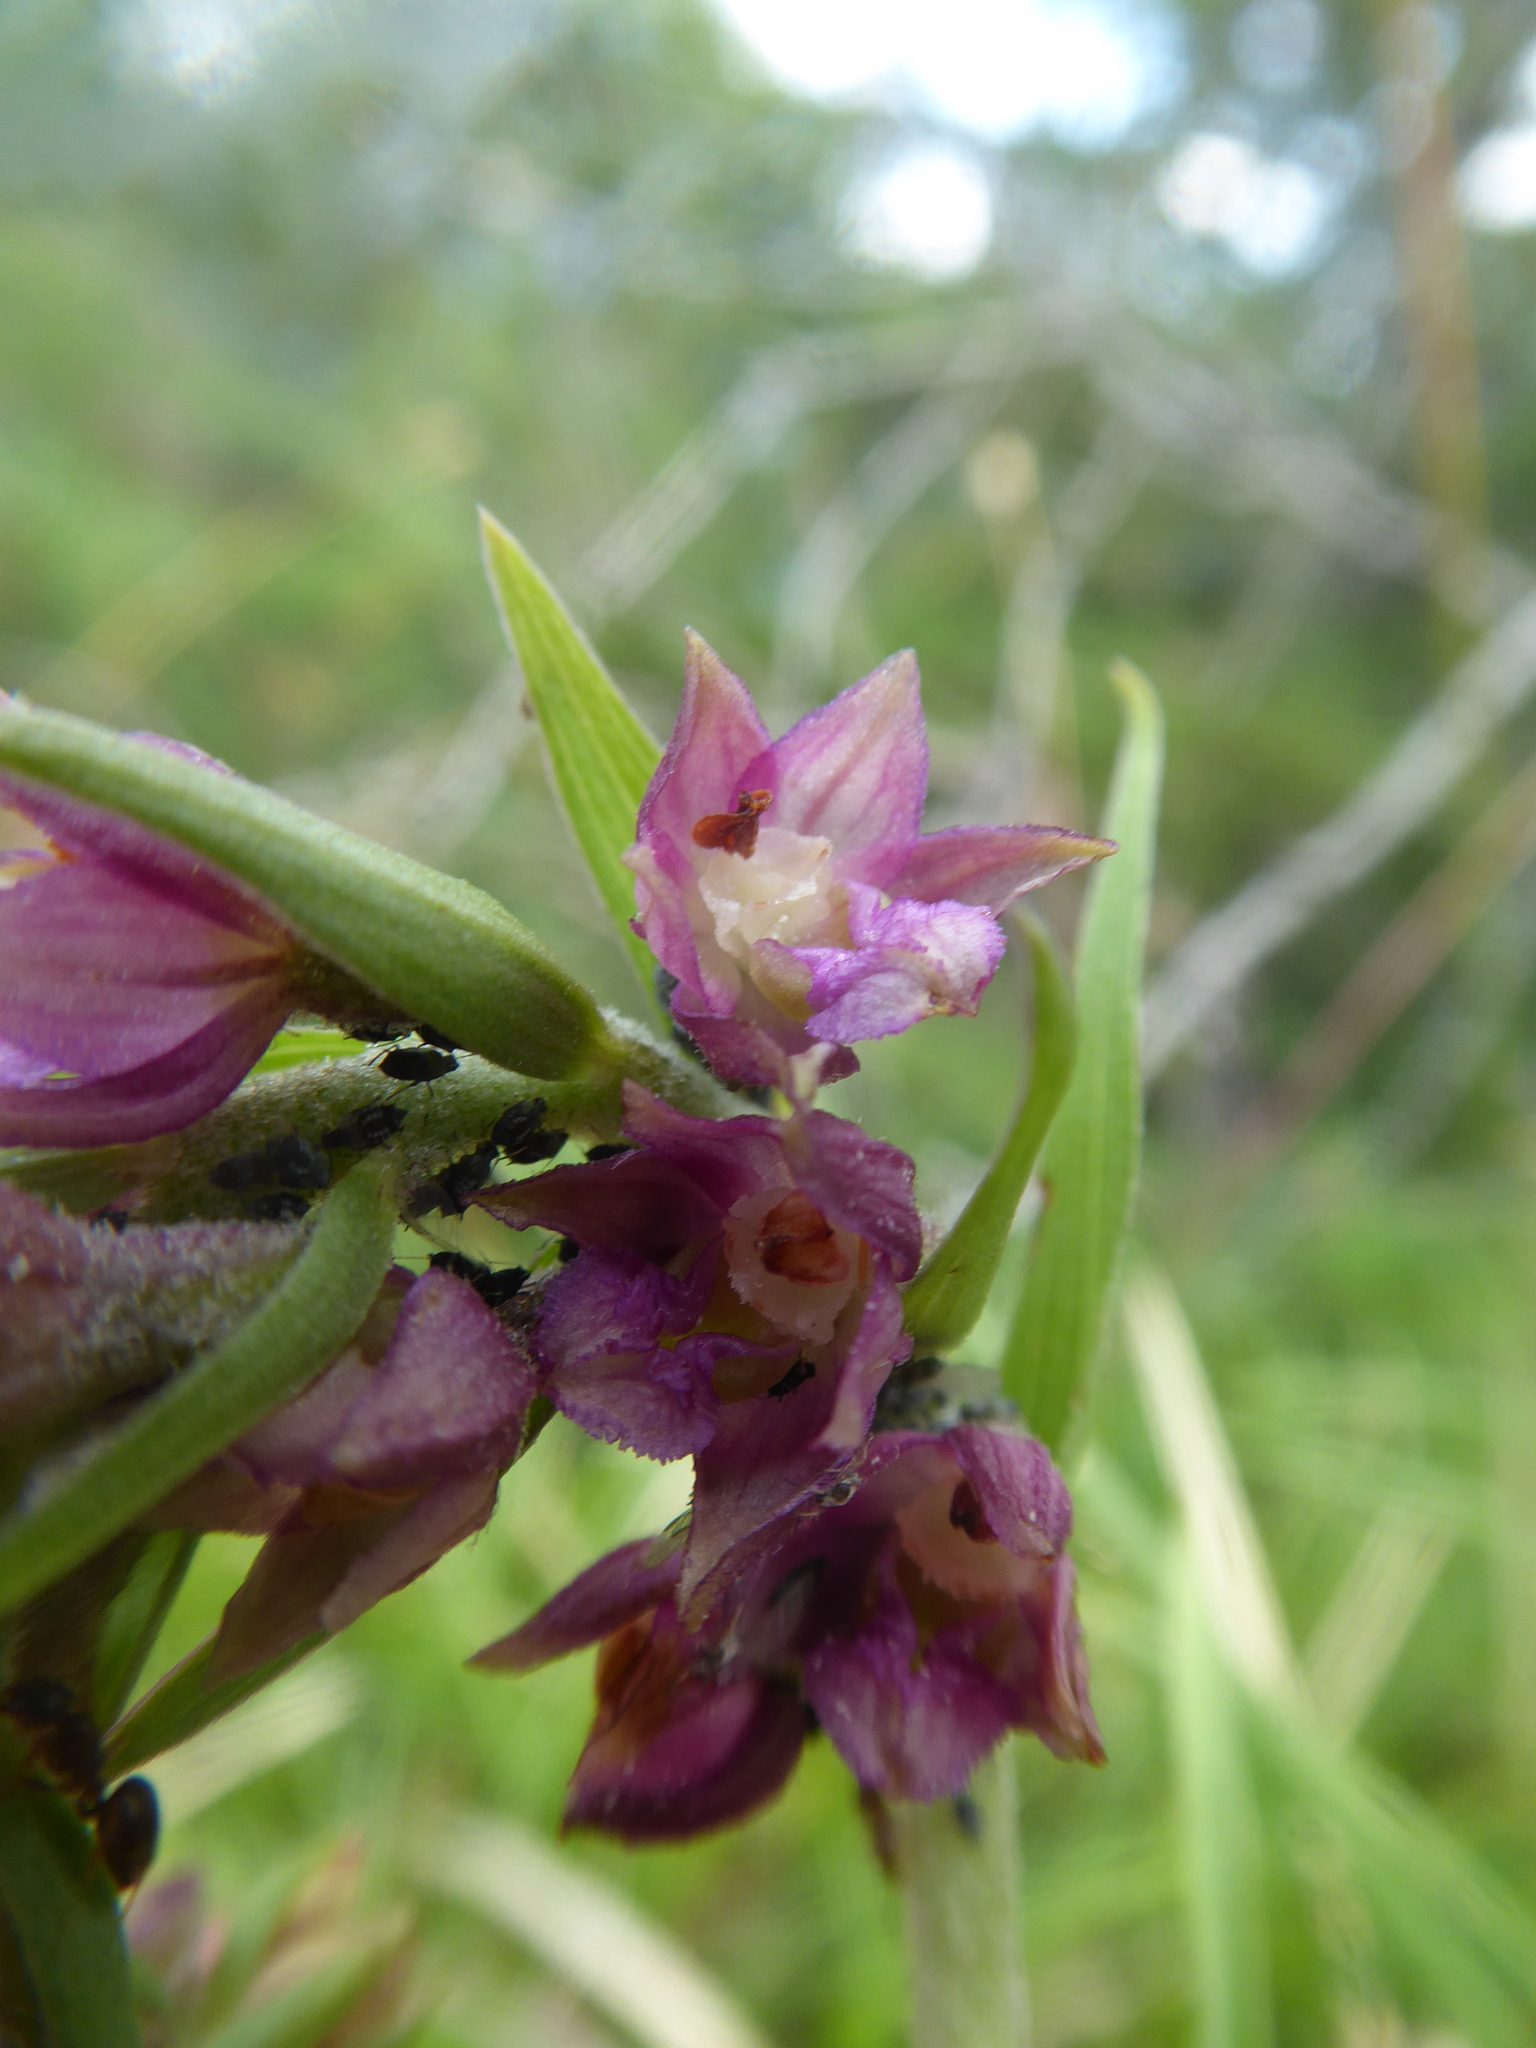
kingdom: Plantae
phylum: Tracheophyta
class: Liliopsida
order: Asparagales
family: Orchidaceae
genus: Epipactis
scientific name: Epipactis atrorubens
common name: Dark-red helleborine
